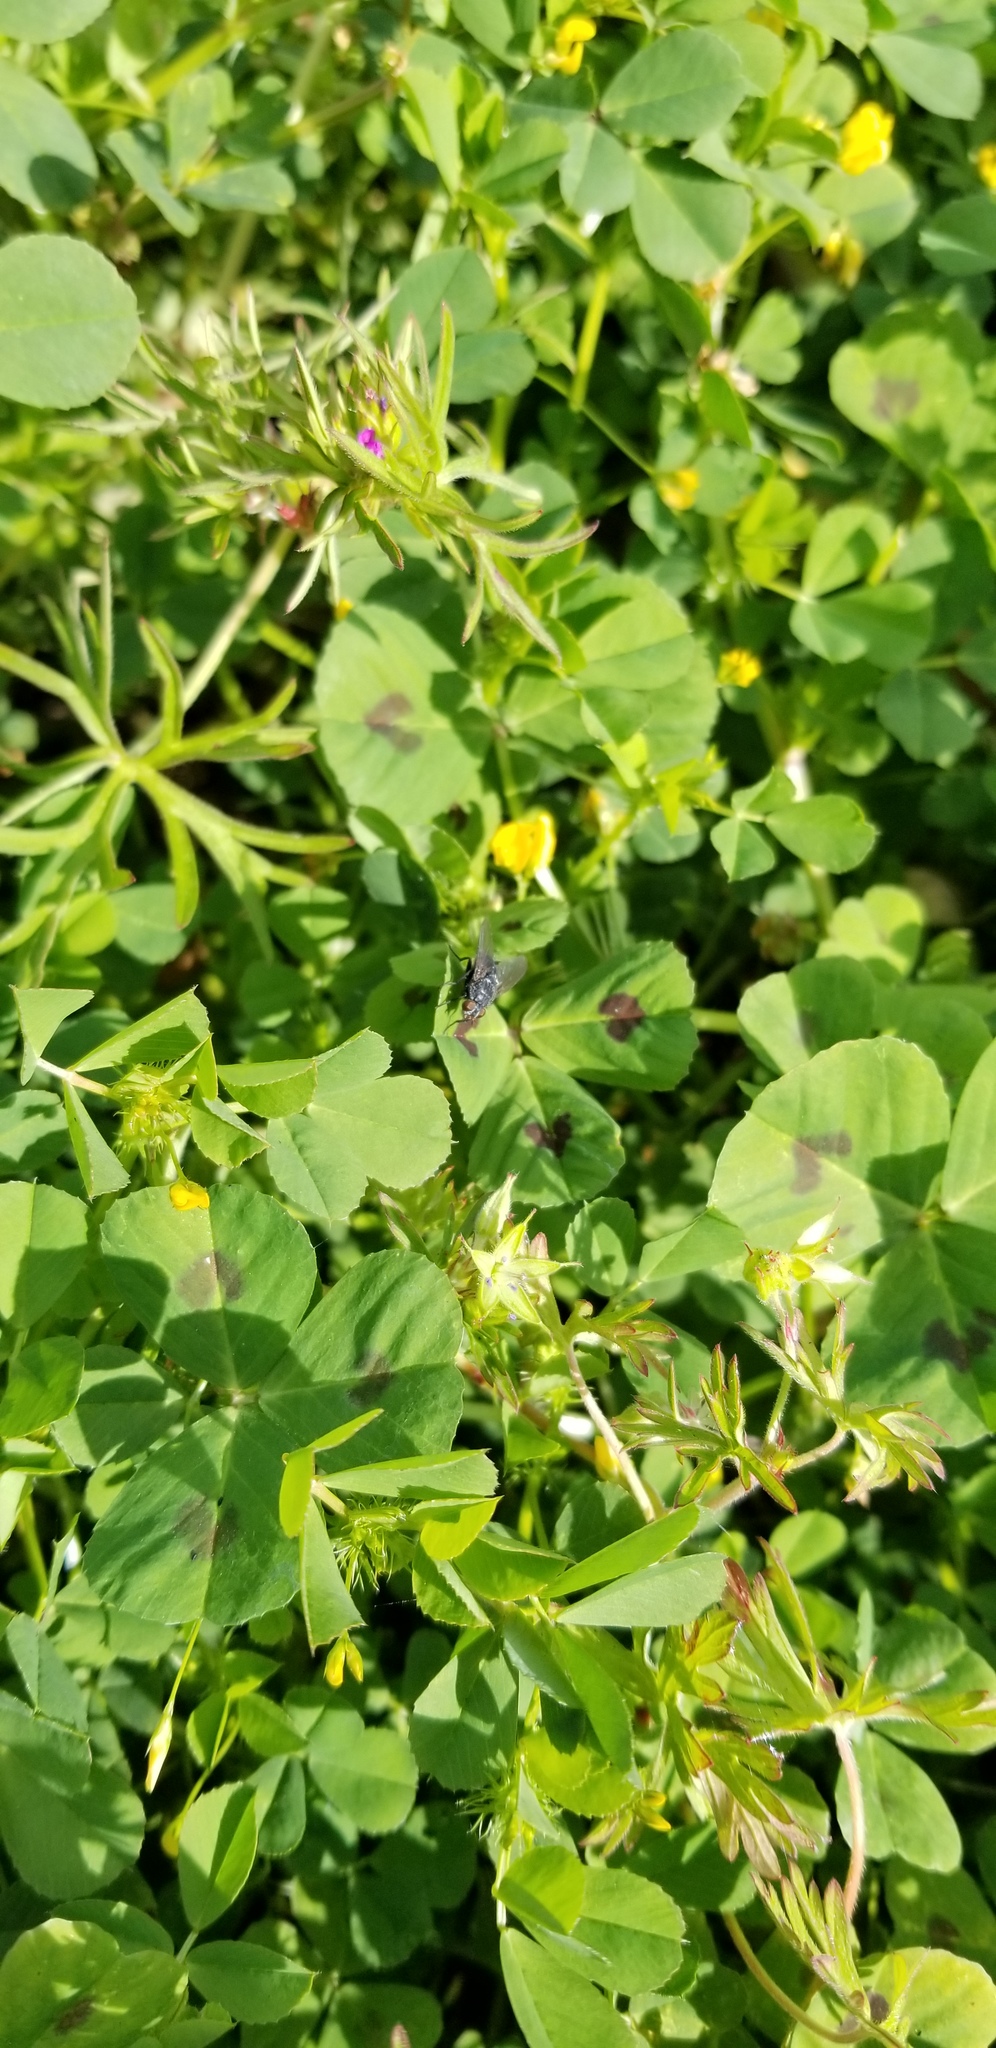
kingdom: Plantae
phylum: Tracheophyta
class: Magnoliopsida
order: Fabales
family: Fabaceae
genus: Medicago
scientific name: Medicago arabica
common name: Spotted medick
